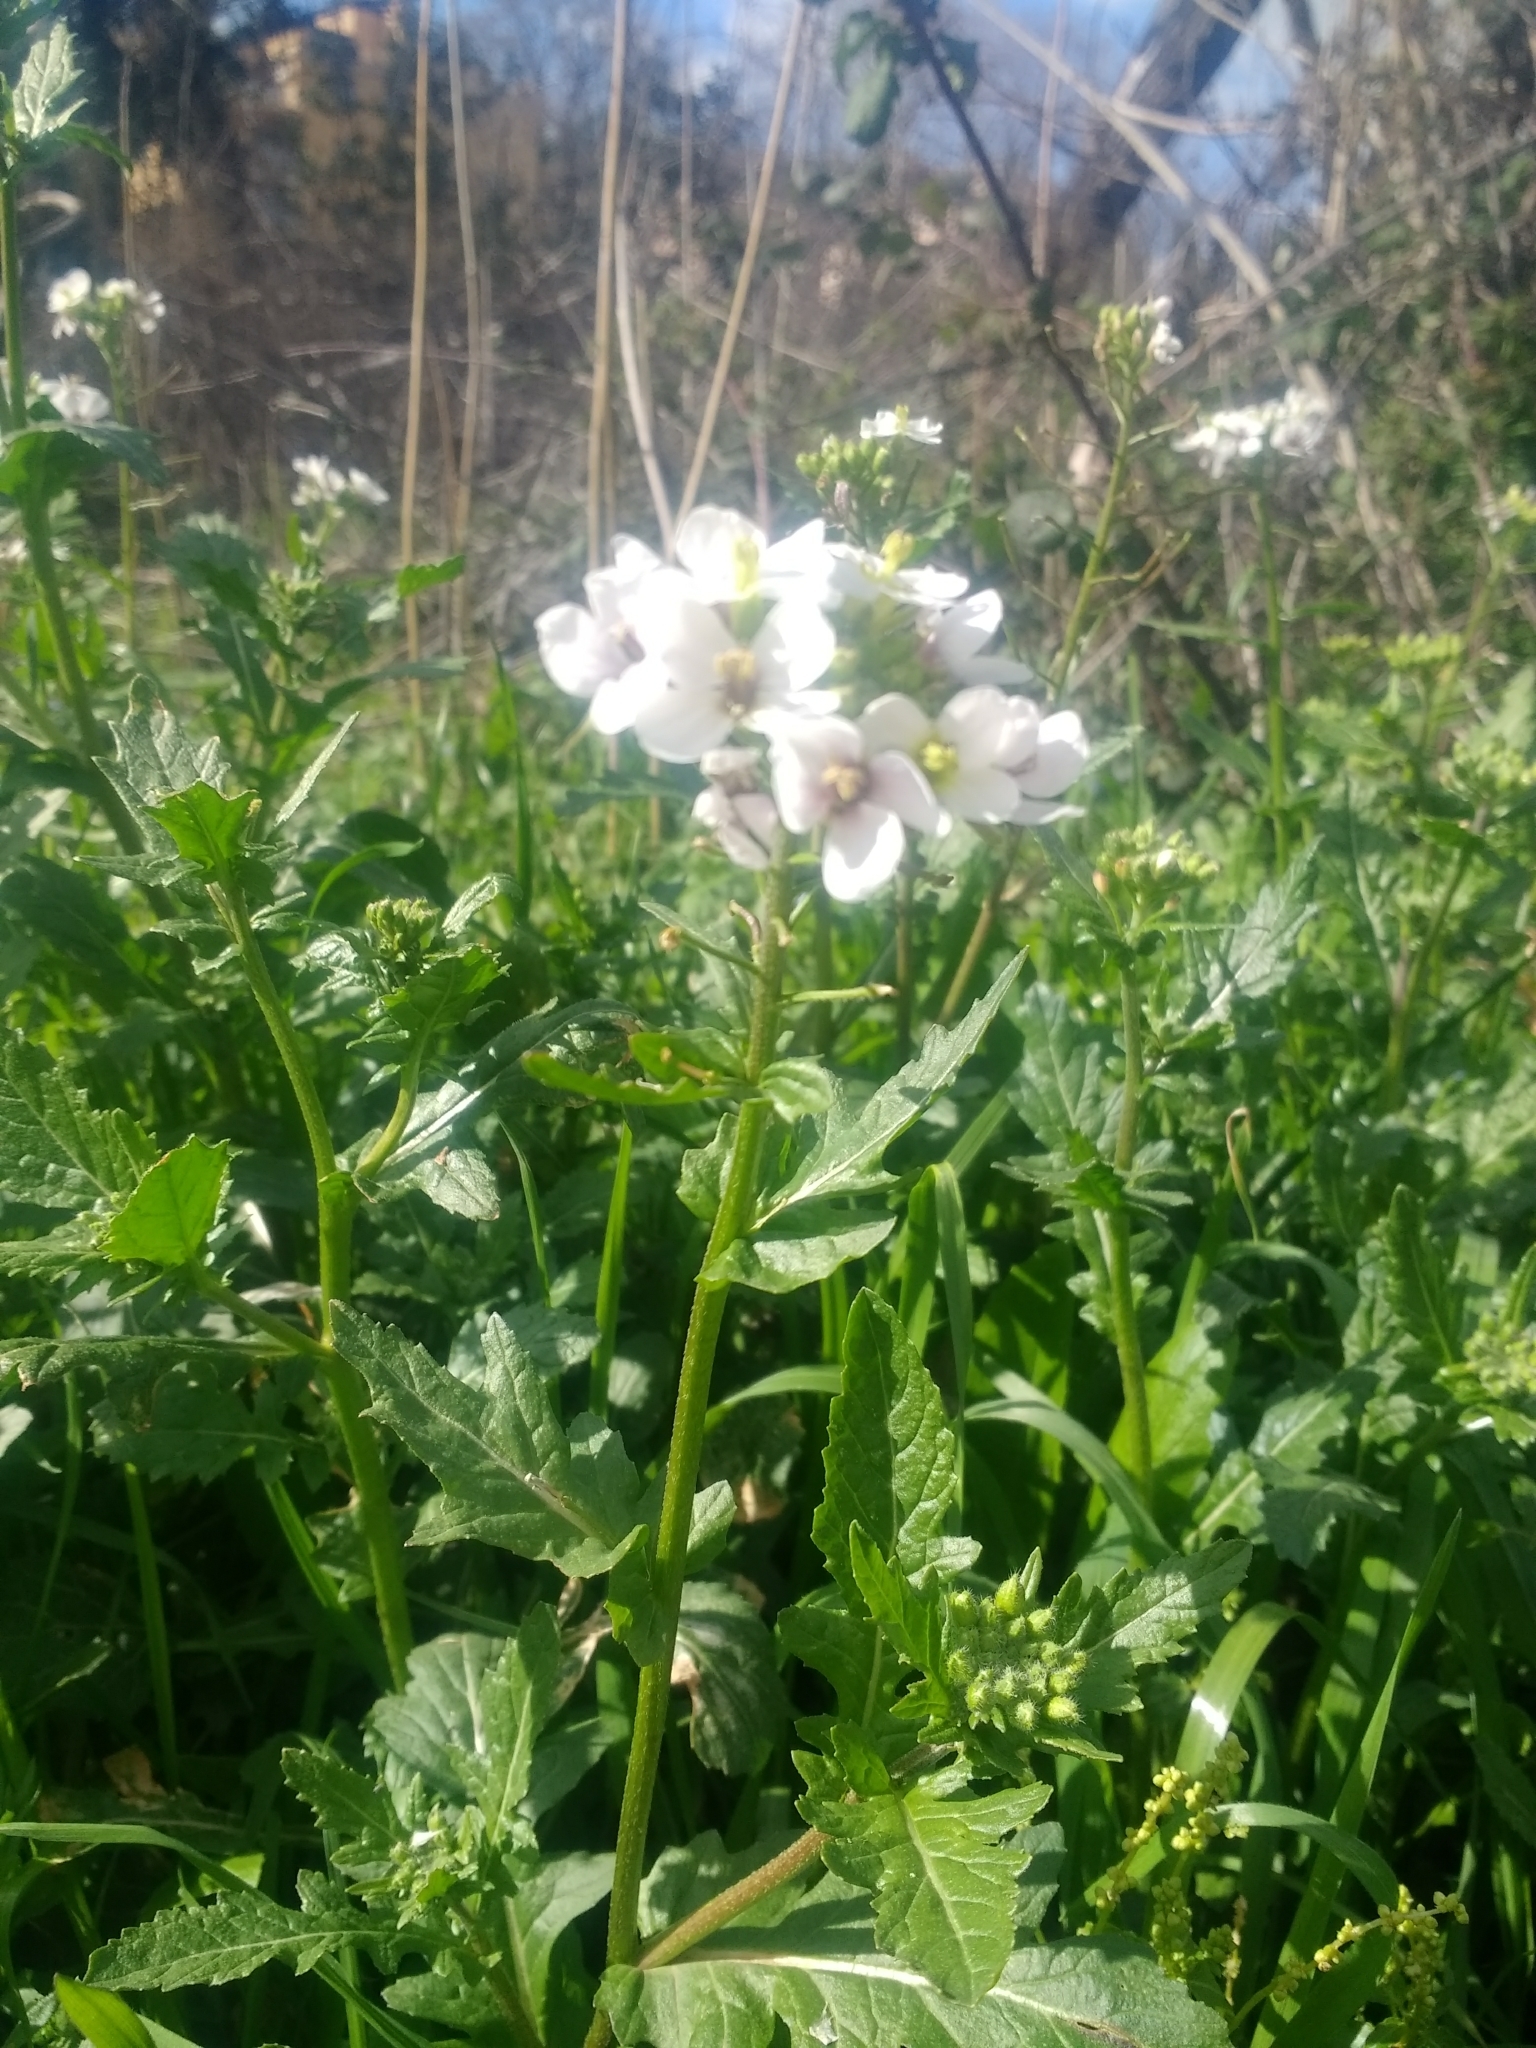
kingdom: Plantae
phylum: Tracheophyta
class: Magnoliopsida
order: Brassicales
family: Brassicaceae
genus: Diplotaxis
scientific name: Diplotaxis erucoides
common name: White rocket
